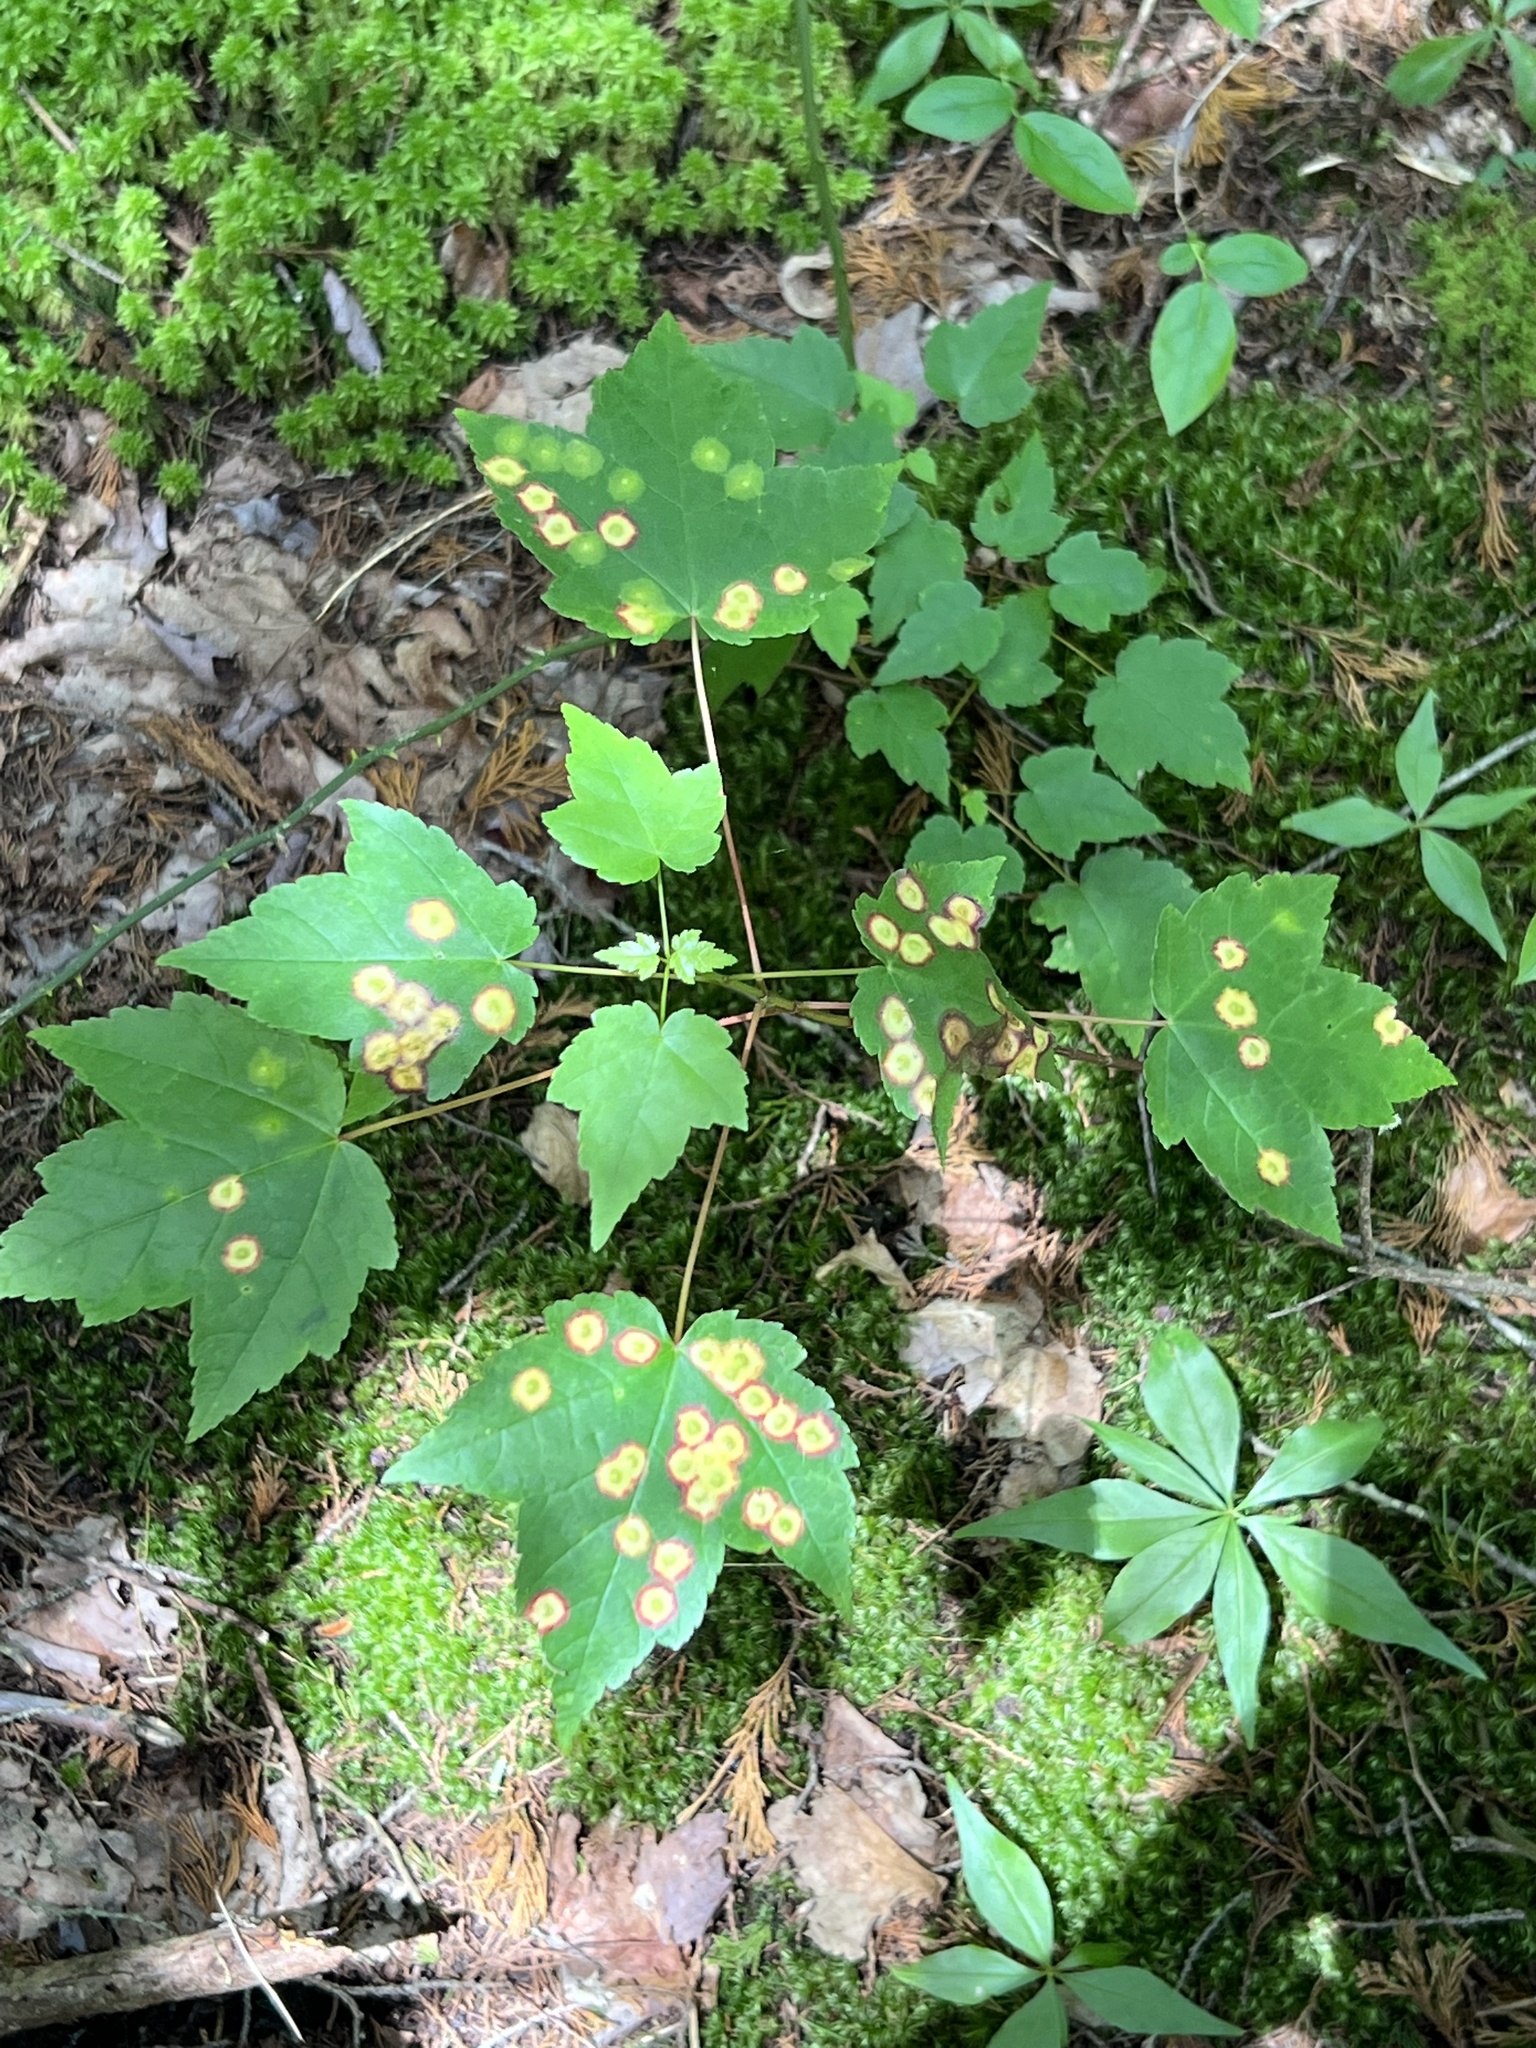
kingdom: Animalia
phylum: Arthropoda
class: Insecta
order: Diptera
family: Cecidomyiidae
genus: Acericecis
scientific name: Acericecis ocellaris
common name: Ocellate gall midge
